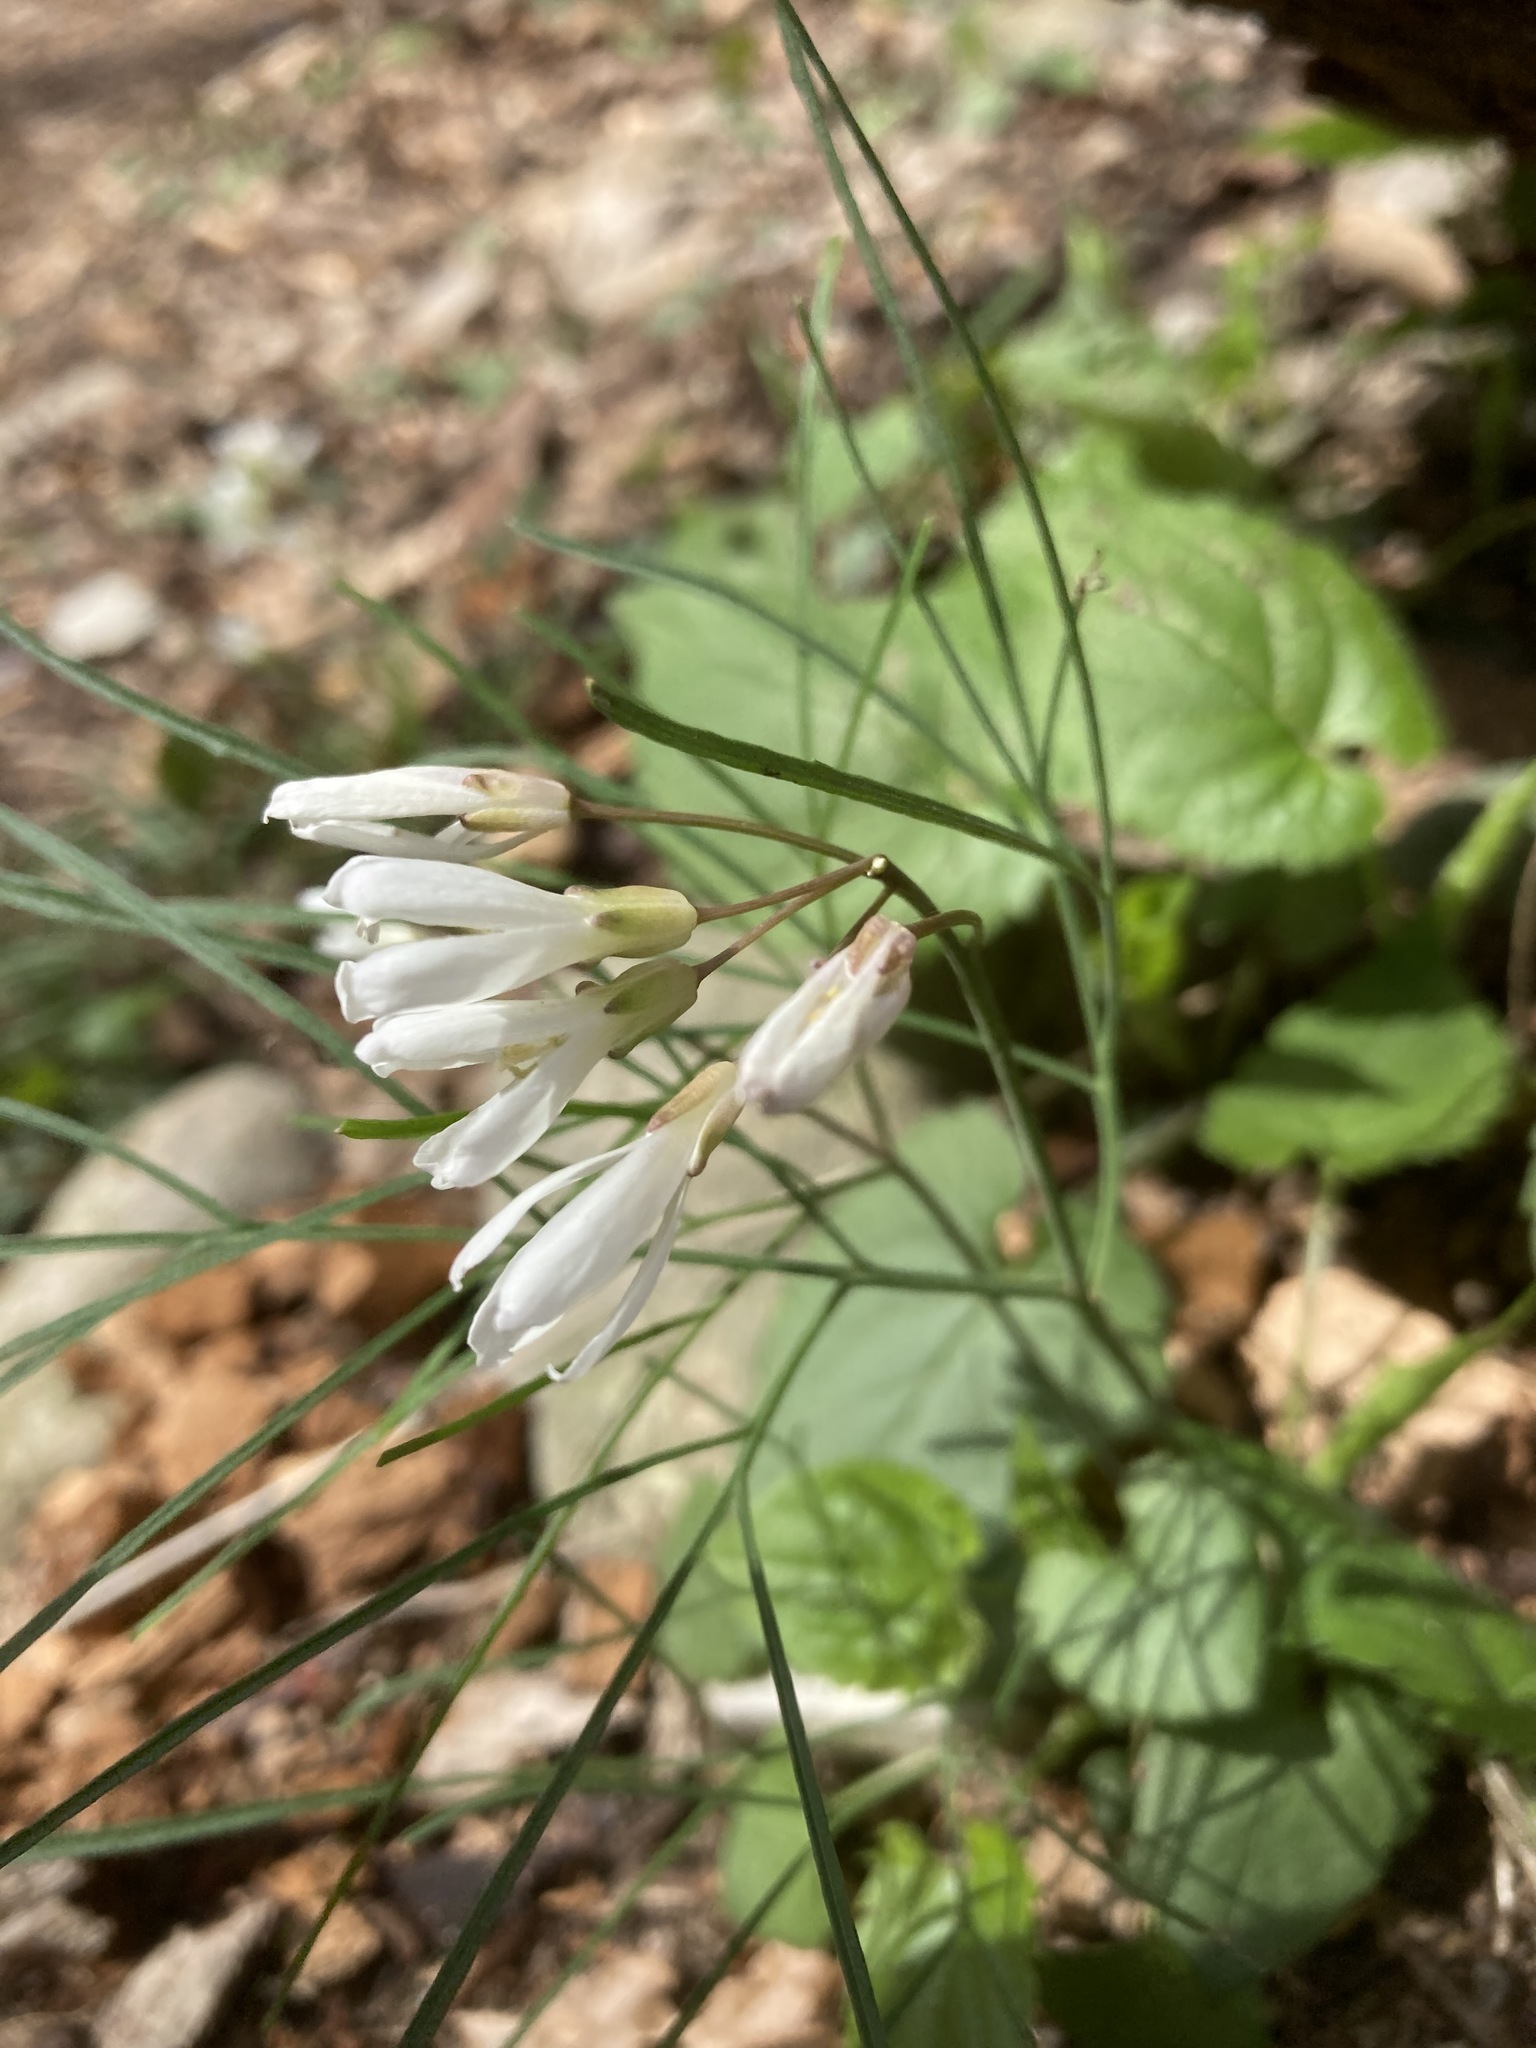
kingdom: Plantae
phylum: Tracheophyta
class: Magnoliopsida
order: Brassicales
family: Brassicaceae
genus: Cardamine
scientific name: Cardamine dissecta
